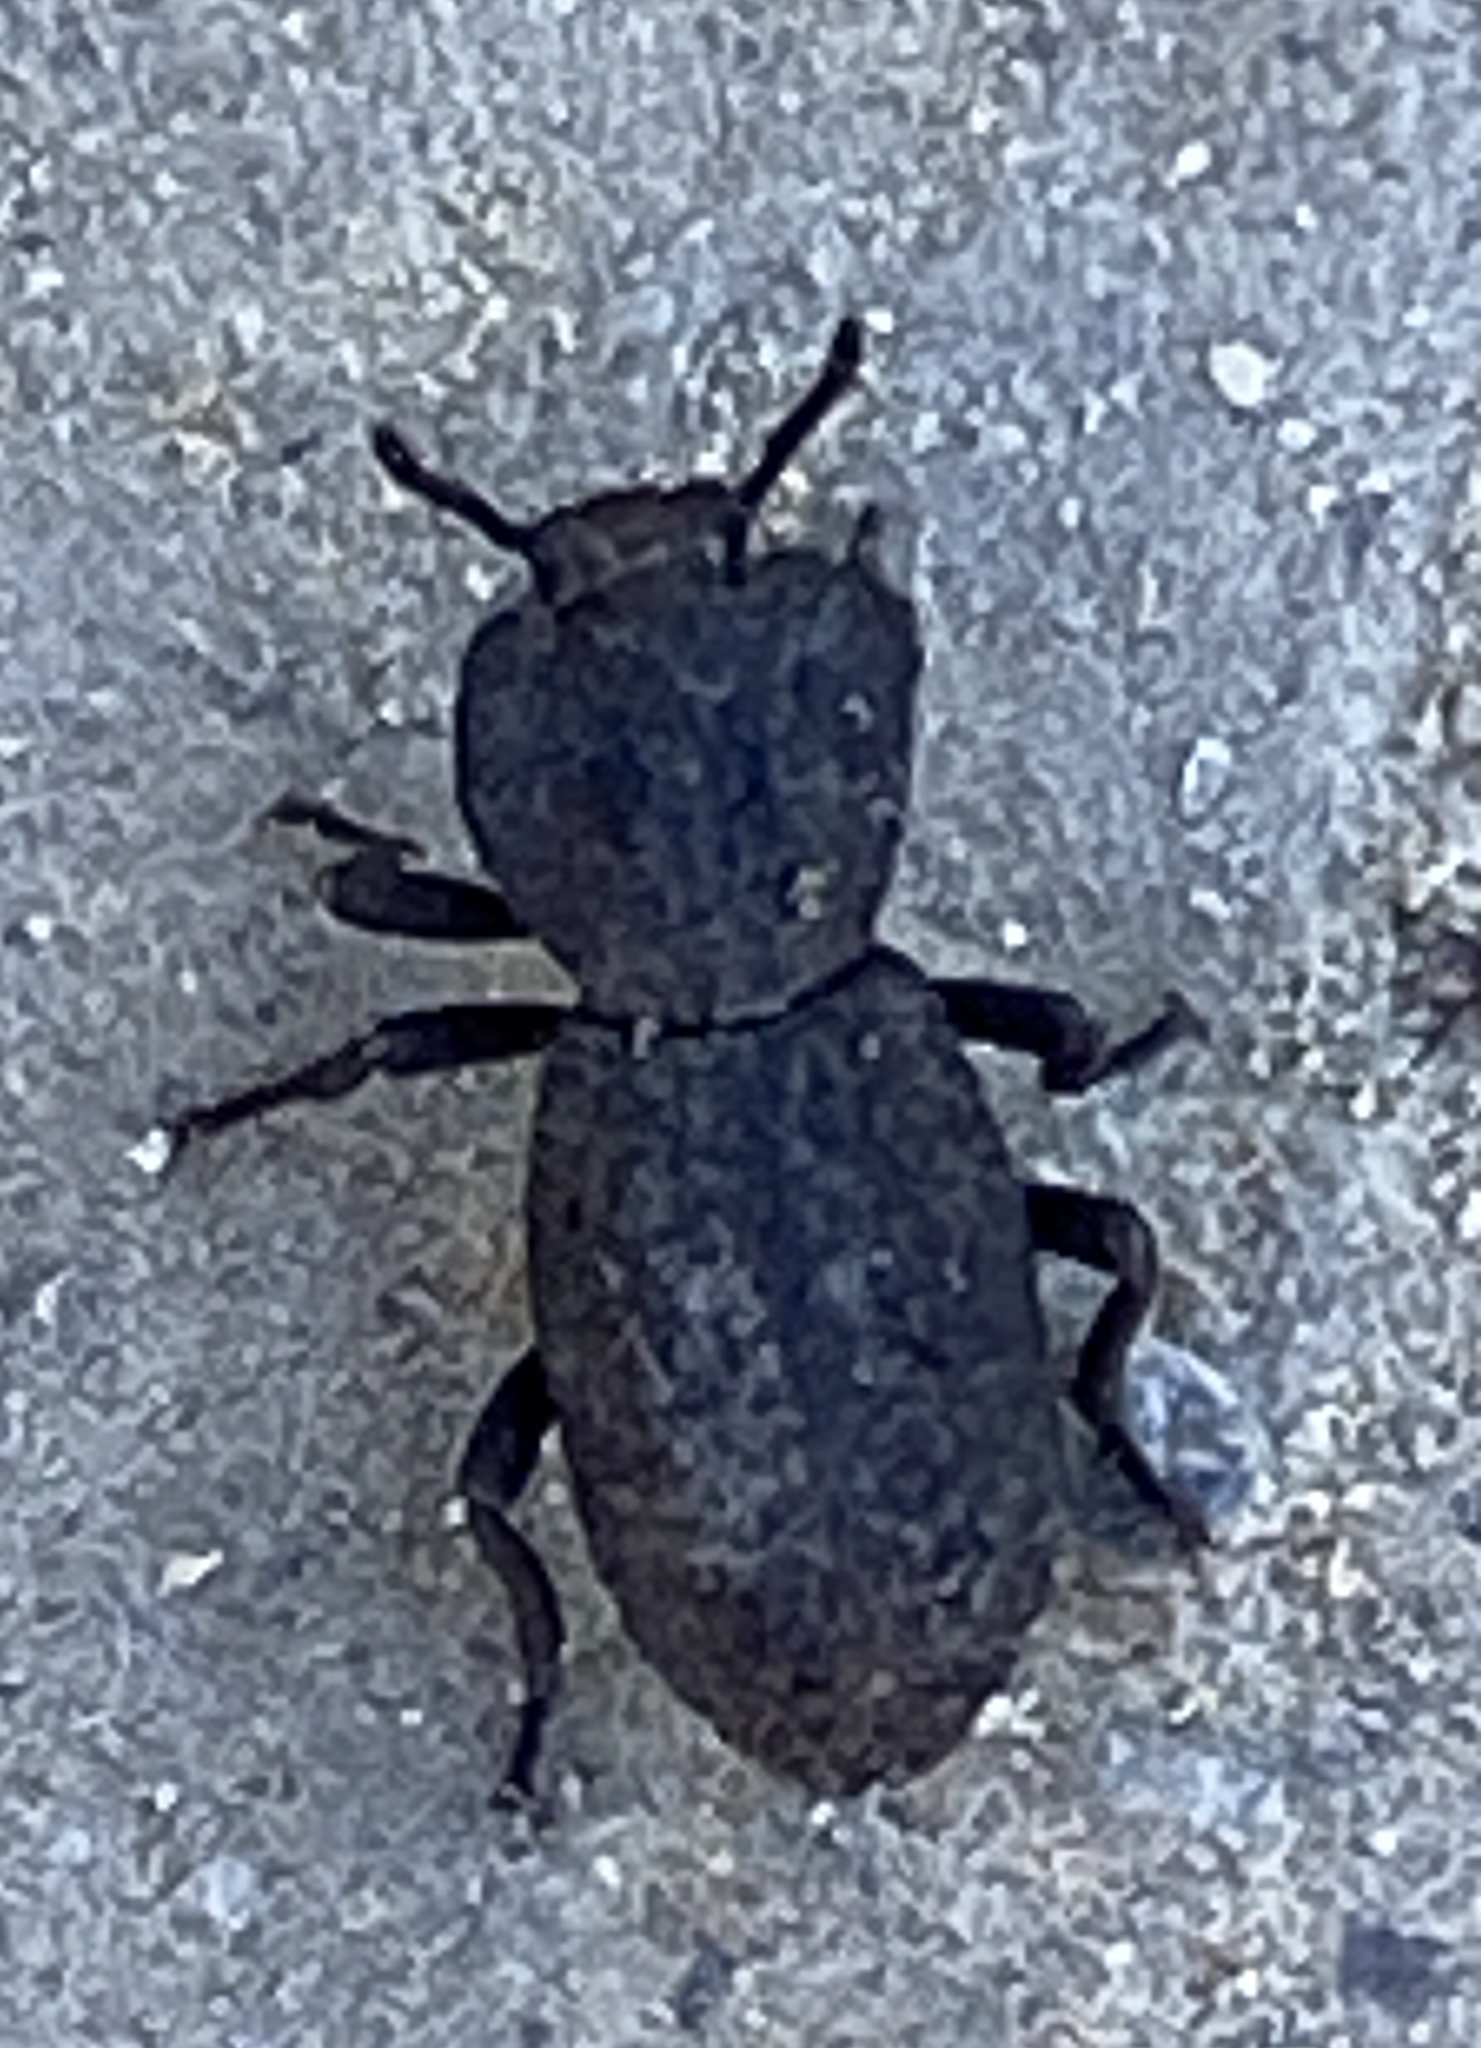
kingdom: Animalia
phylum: Arthropoda
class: Insecta
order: Coleoptera
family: Zopheridae
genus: Phloeodes
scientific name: Phloeodes diabolicus
